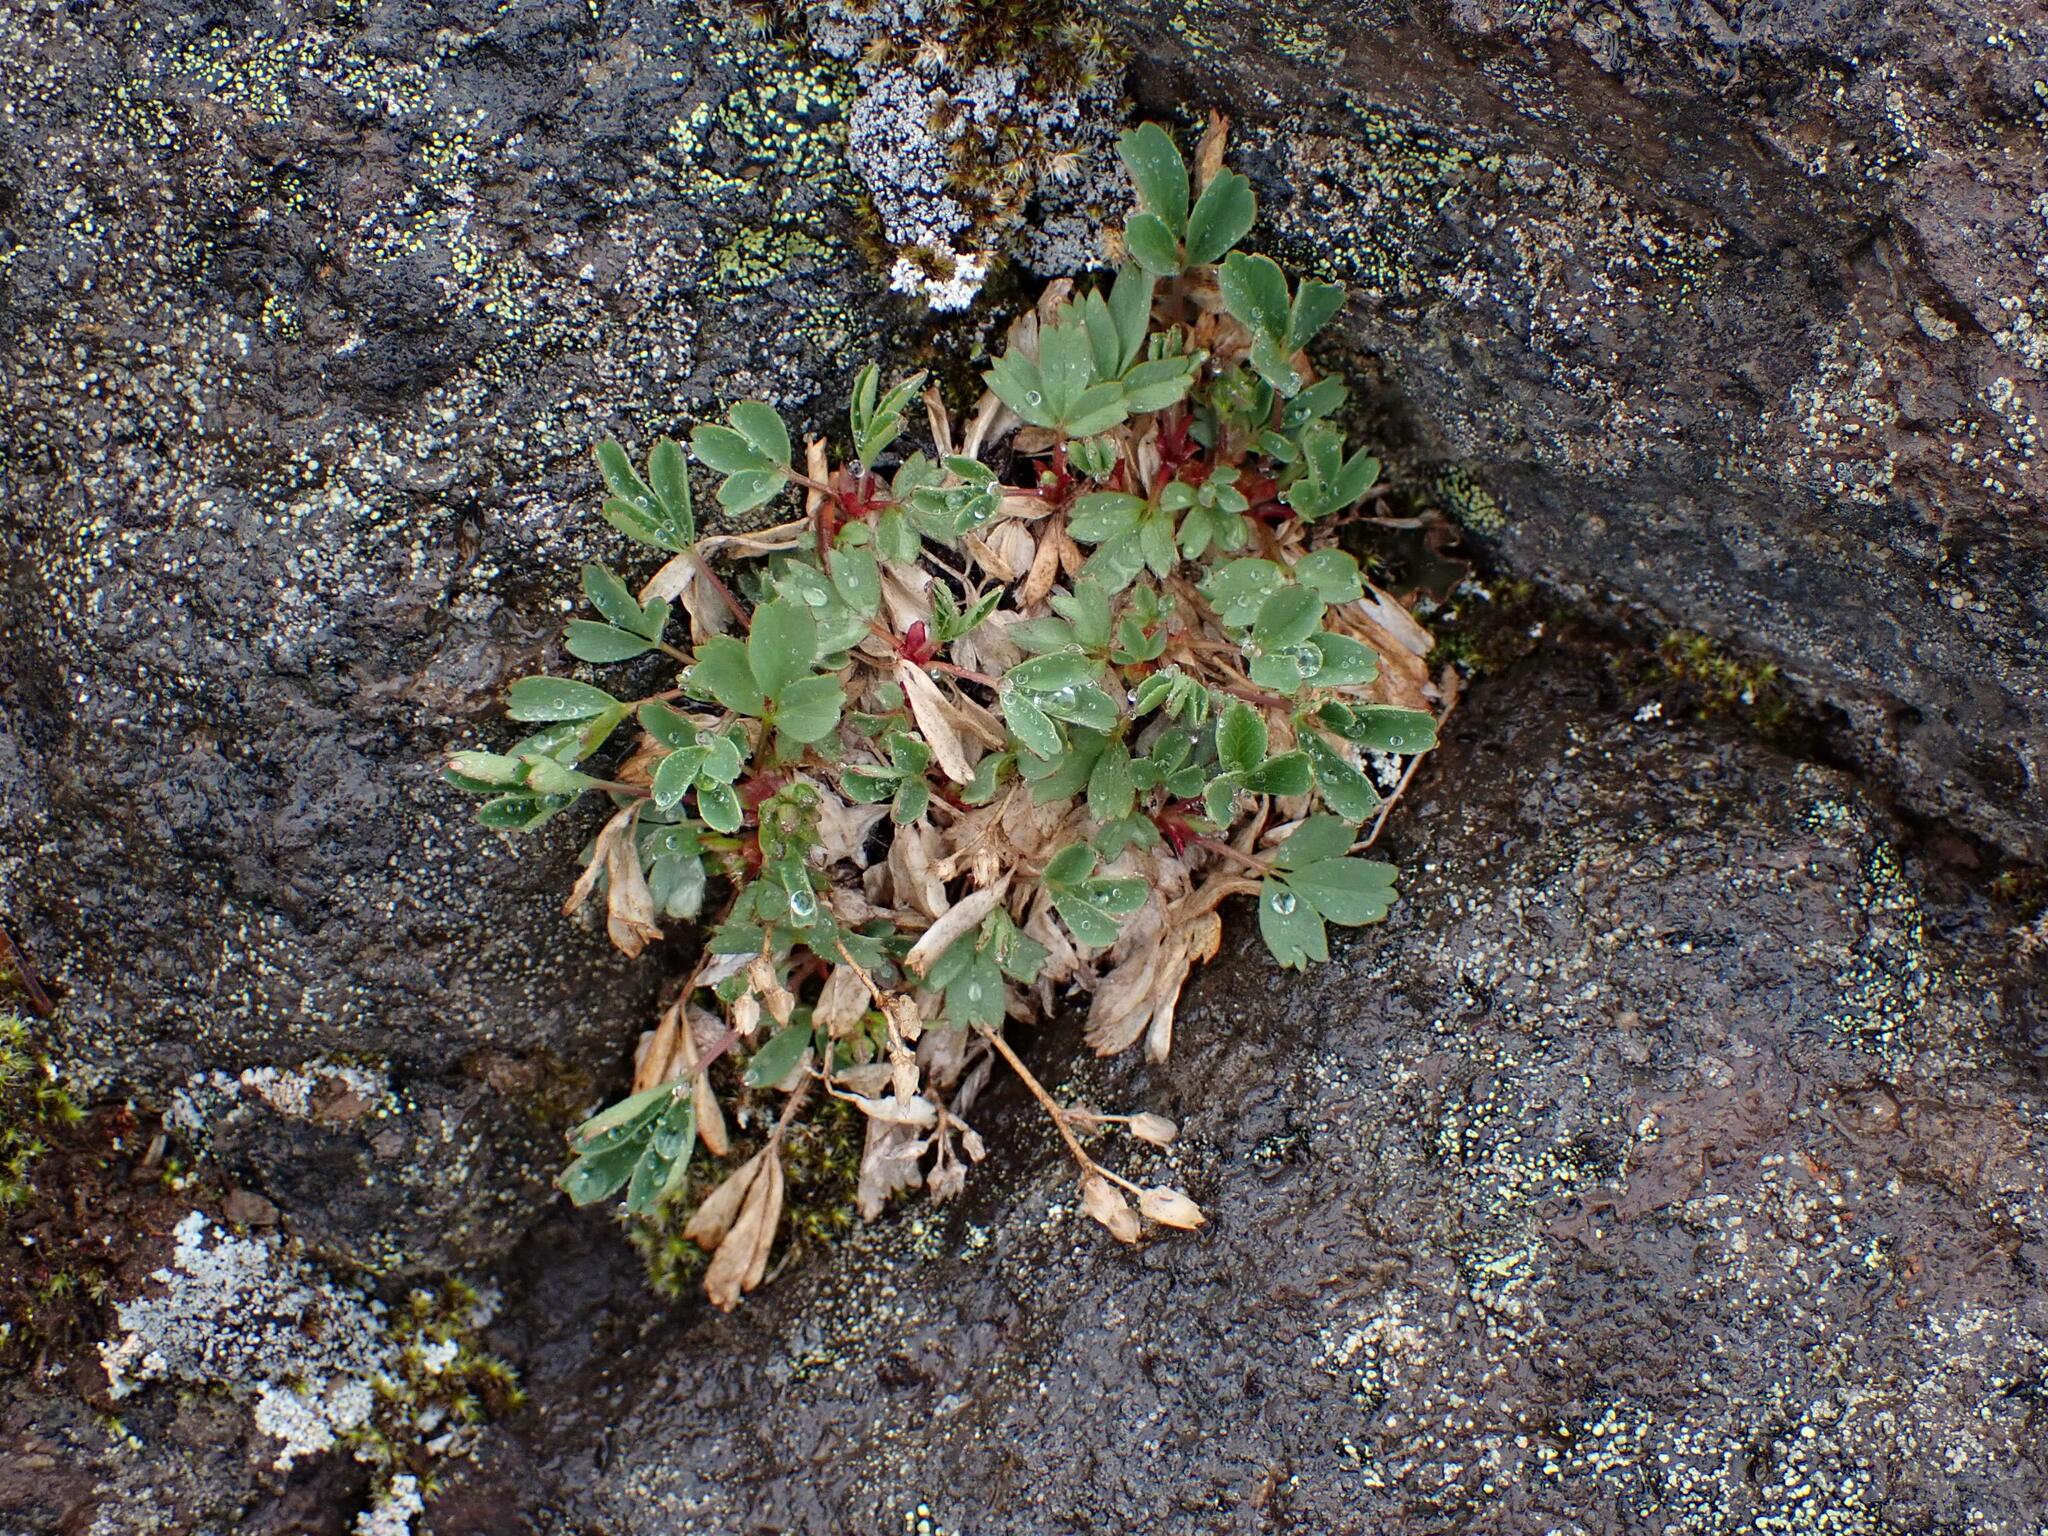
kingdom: Plantae
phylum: Tracheophyta
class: Magnoliopsida
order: Rosales
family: Rosaceae
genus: Sibbaldia
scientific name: Sibbaldia procumbens
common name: Creeping sibbaldia
